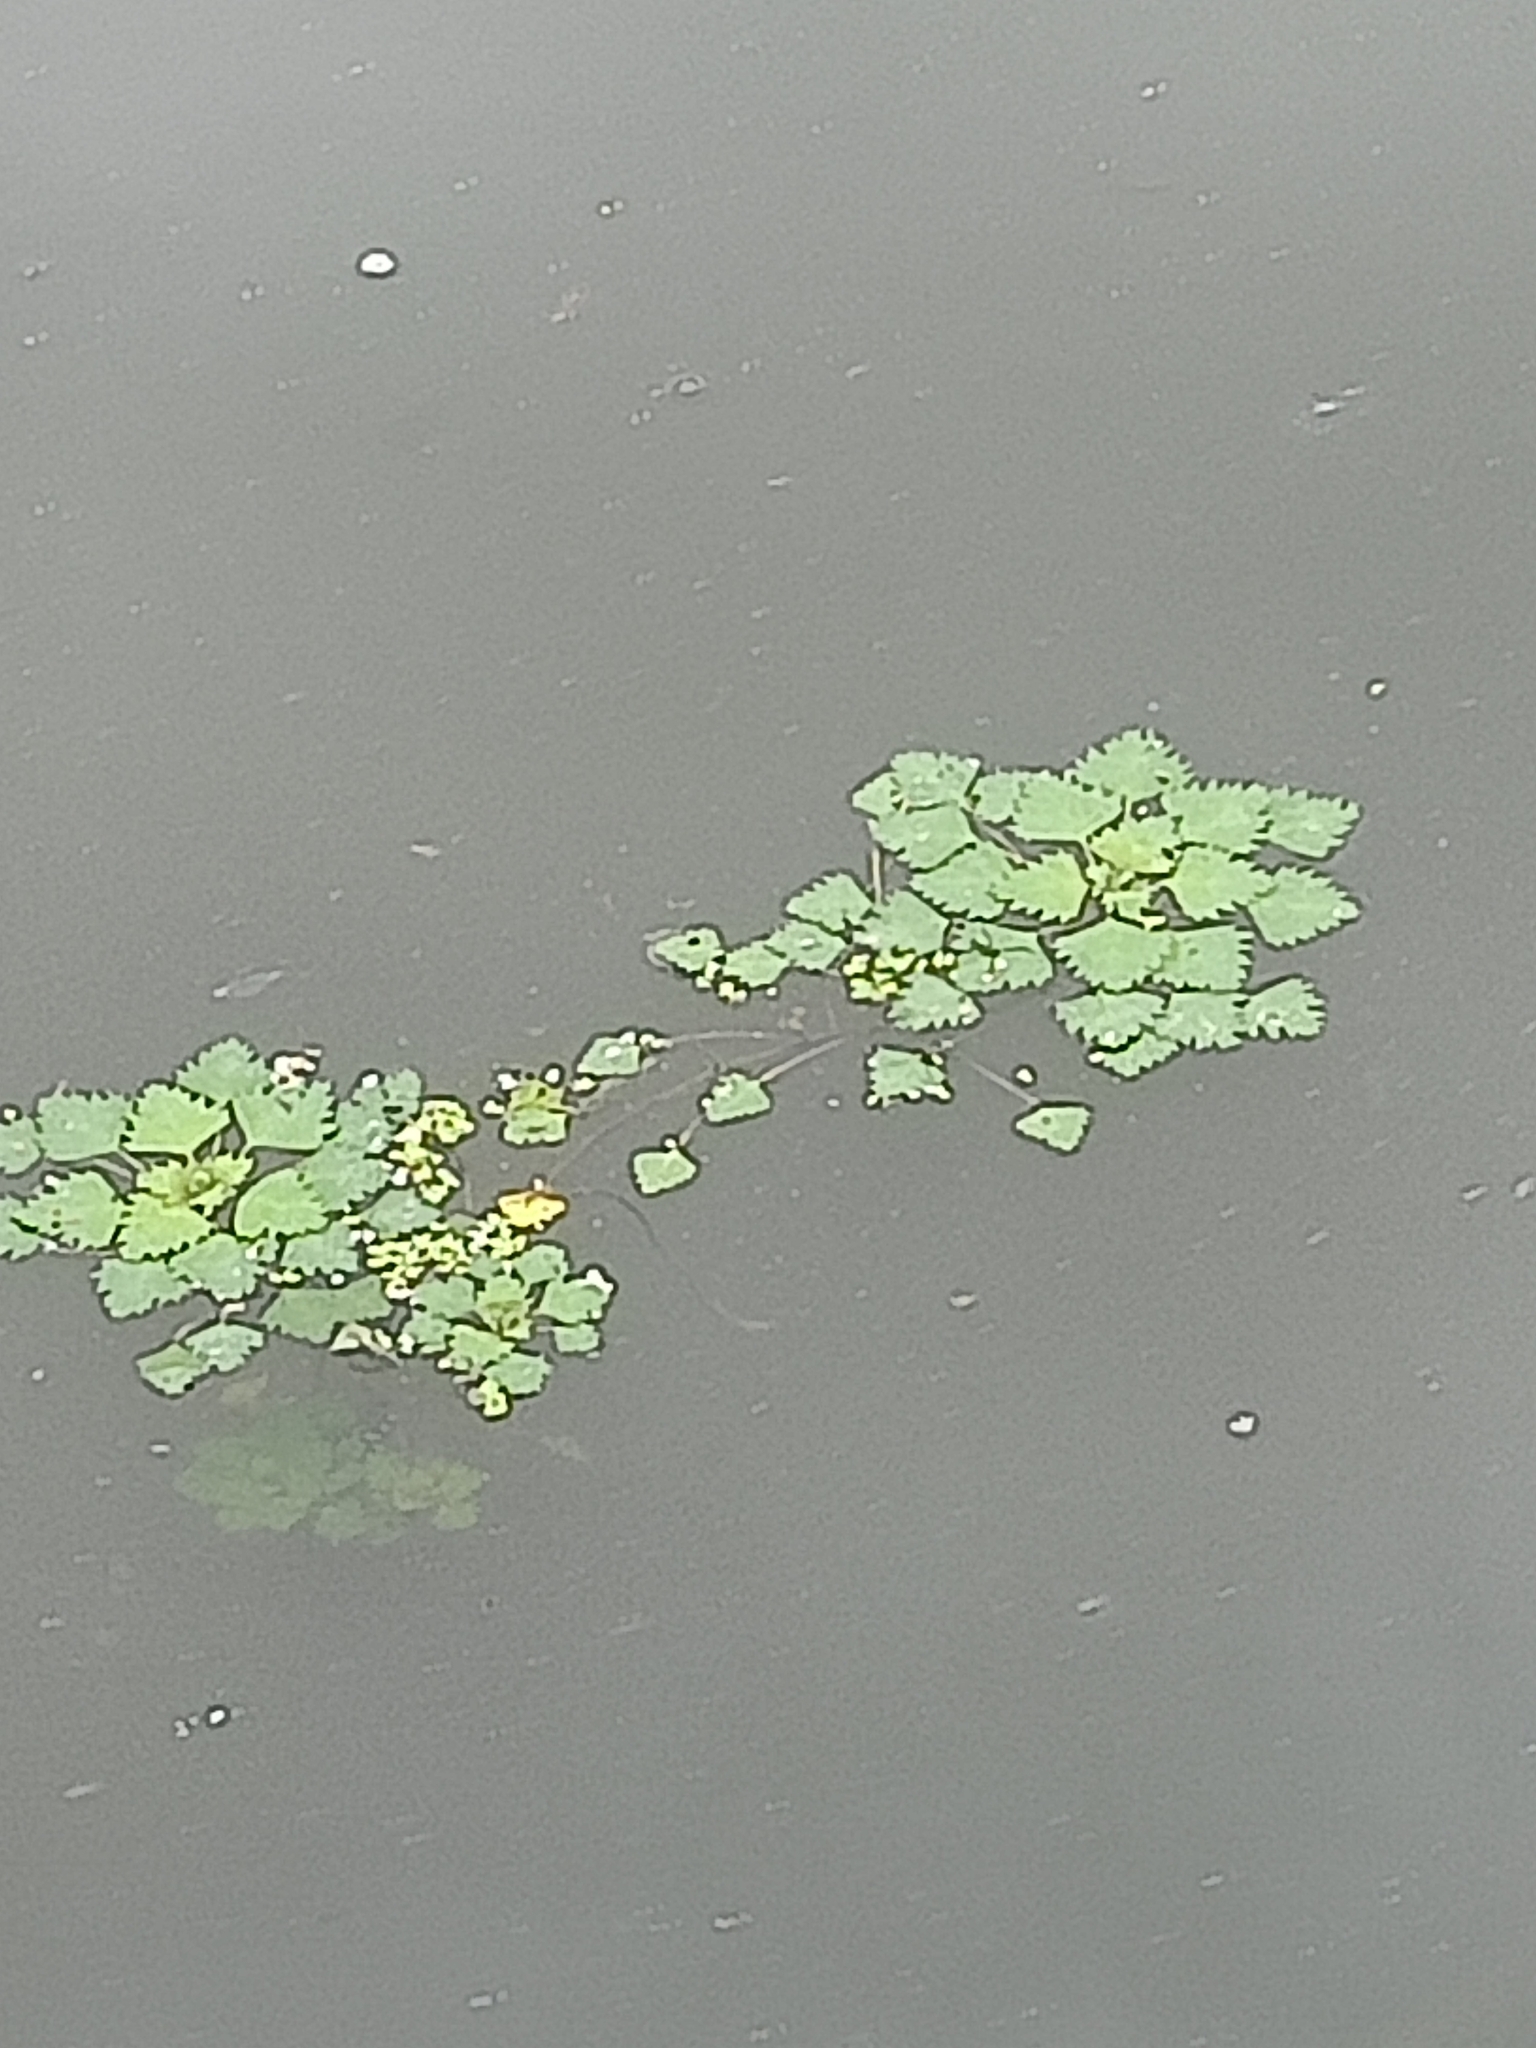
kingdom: Plantae
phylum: Tracheophyta
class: Magnoliopsida
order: Myrtales
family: Lythraceae
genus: Trapa
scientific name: Trapa natans
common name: Water chestnut
